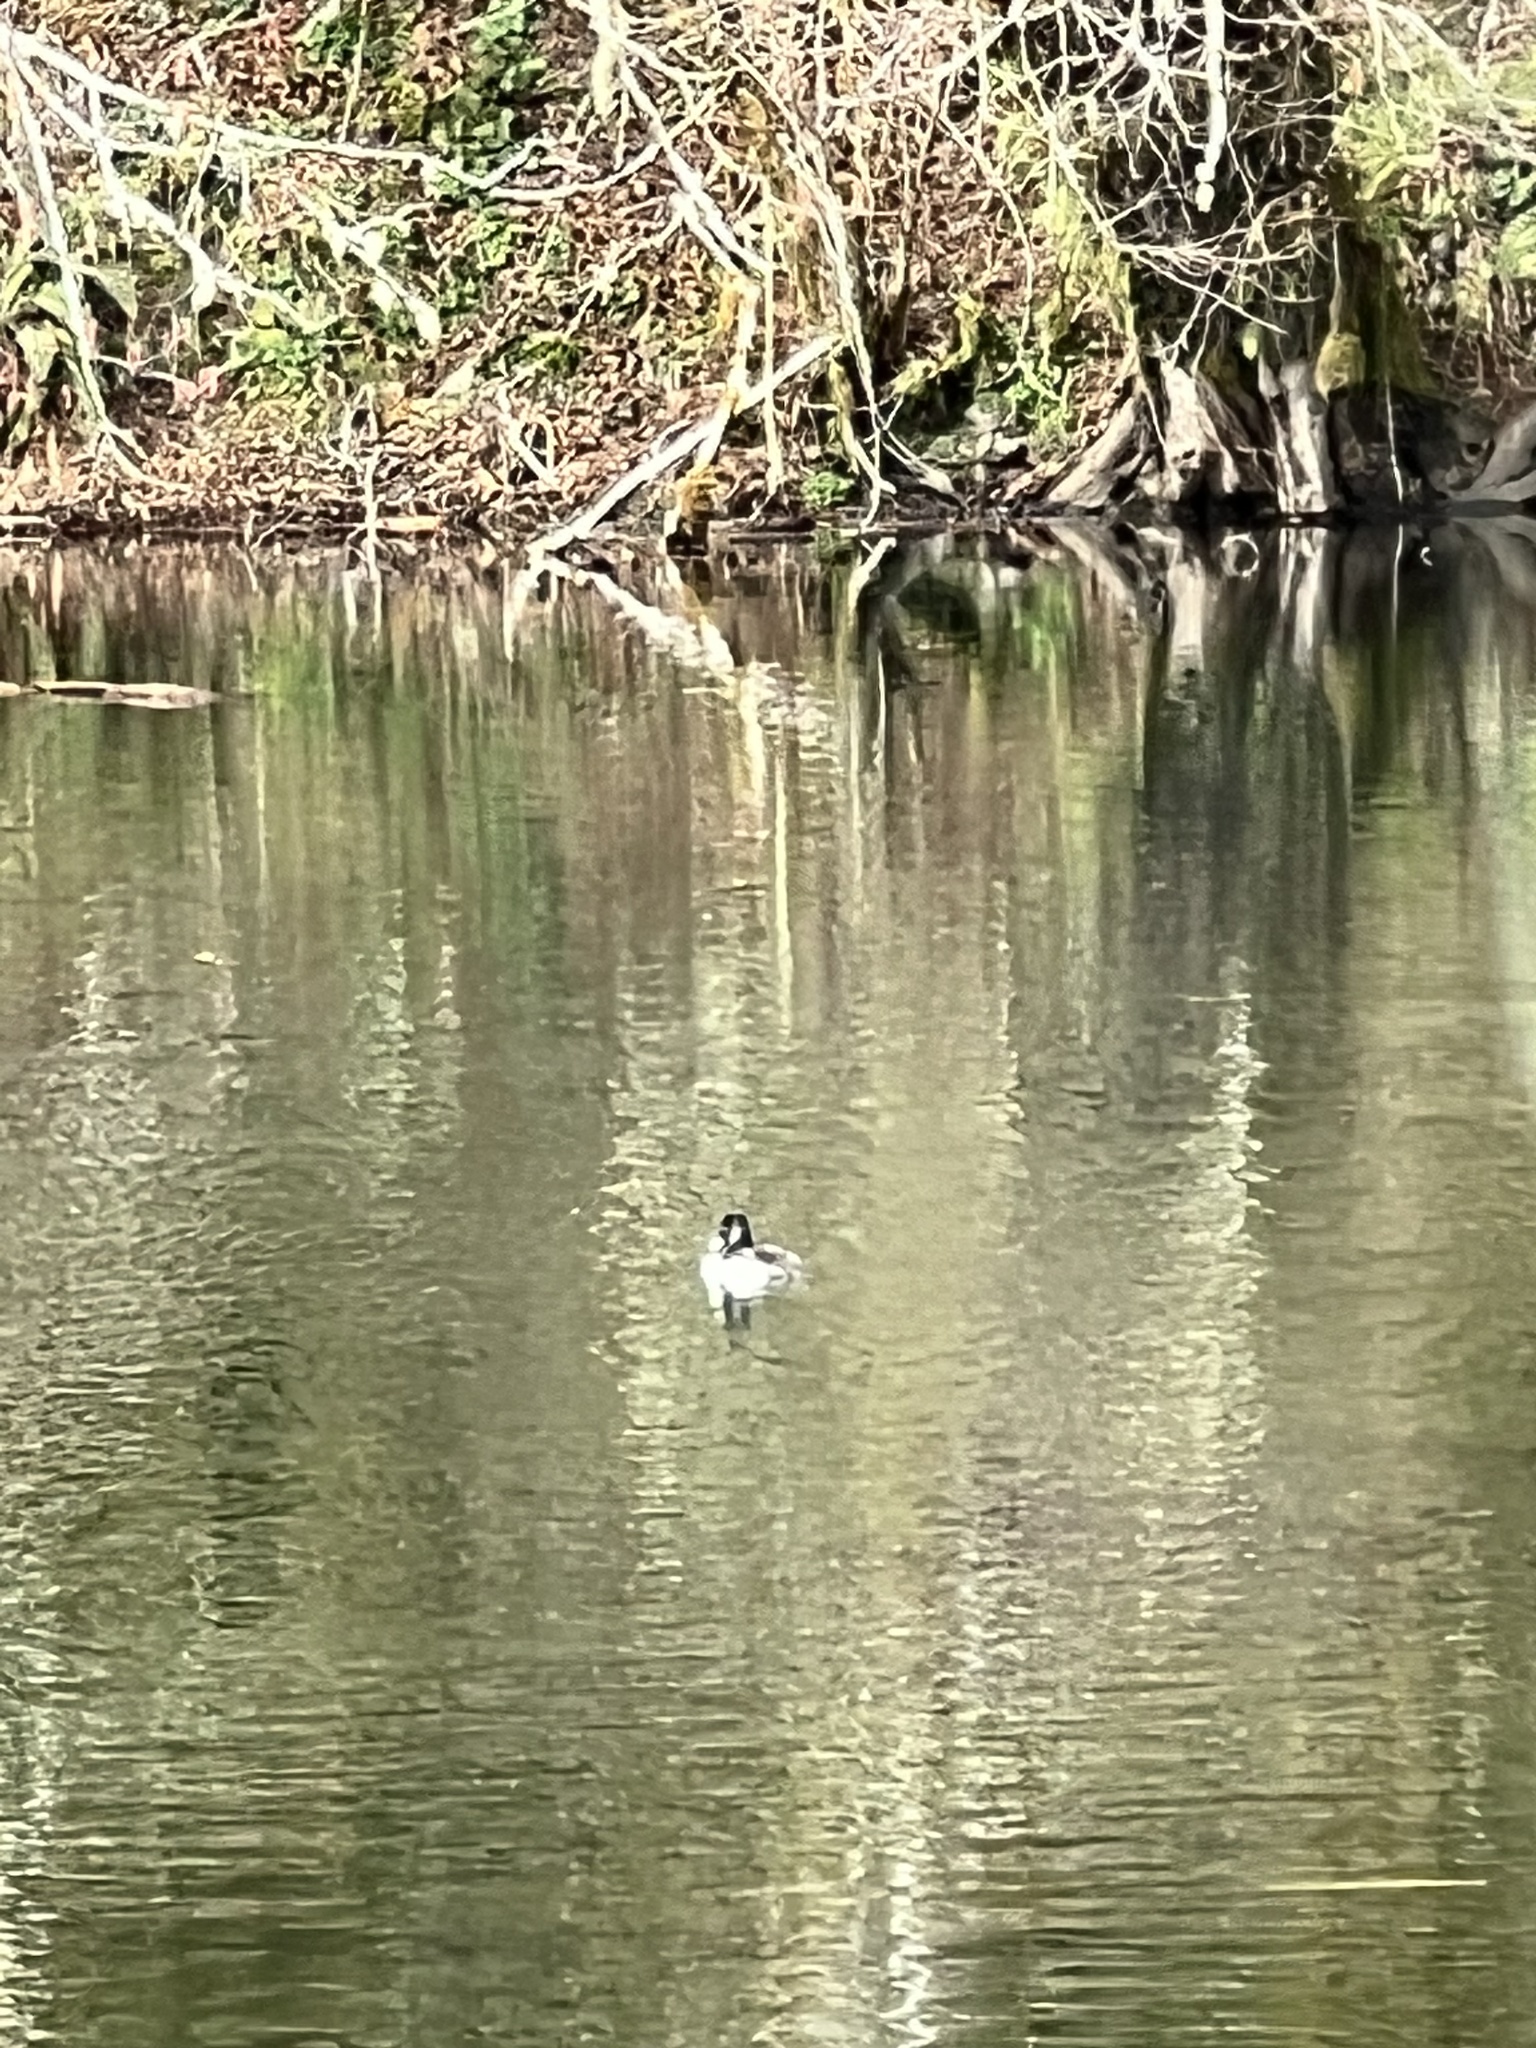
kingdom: Animalia
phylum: Chordata
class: Aves
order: Anseriformes
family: Anatidae
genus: Aythya
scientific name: Aythya collaris
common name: Ring-necked duck
